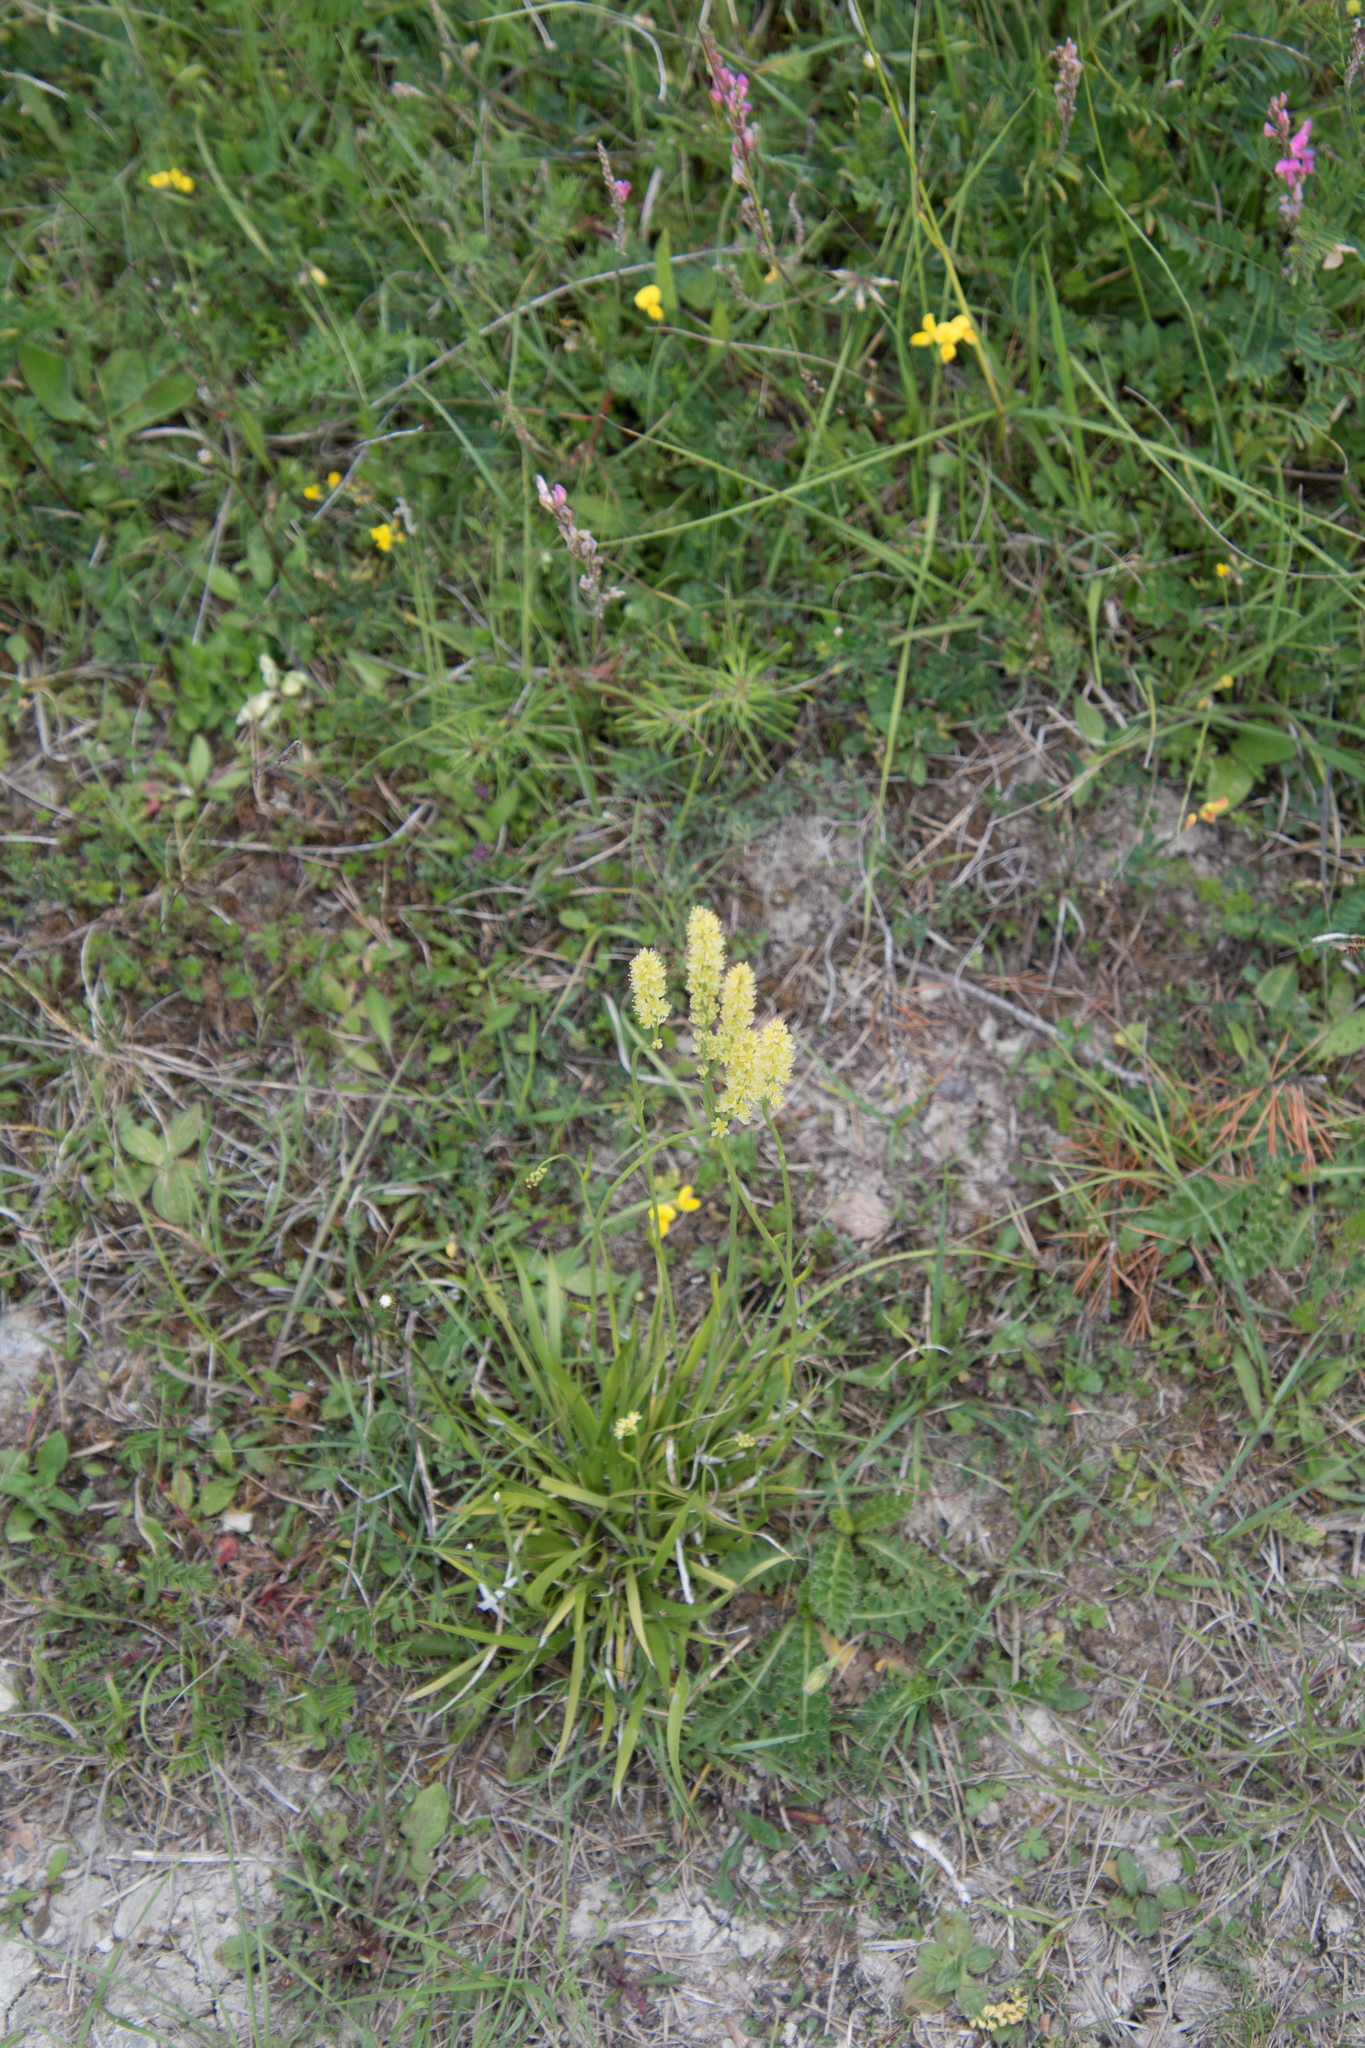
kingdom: Plantae
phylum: Tracheophyta
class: Liliopsida
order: Alismatales
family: Tofieldiaceae
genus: Tofieldia
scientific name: Tofieldia calyculata
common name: German-asphodel
